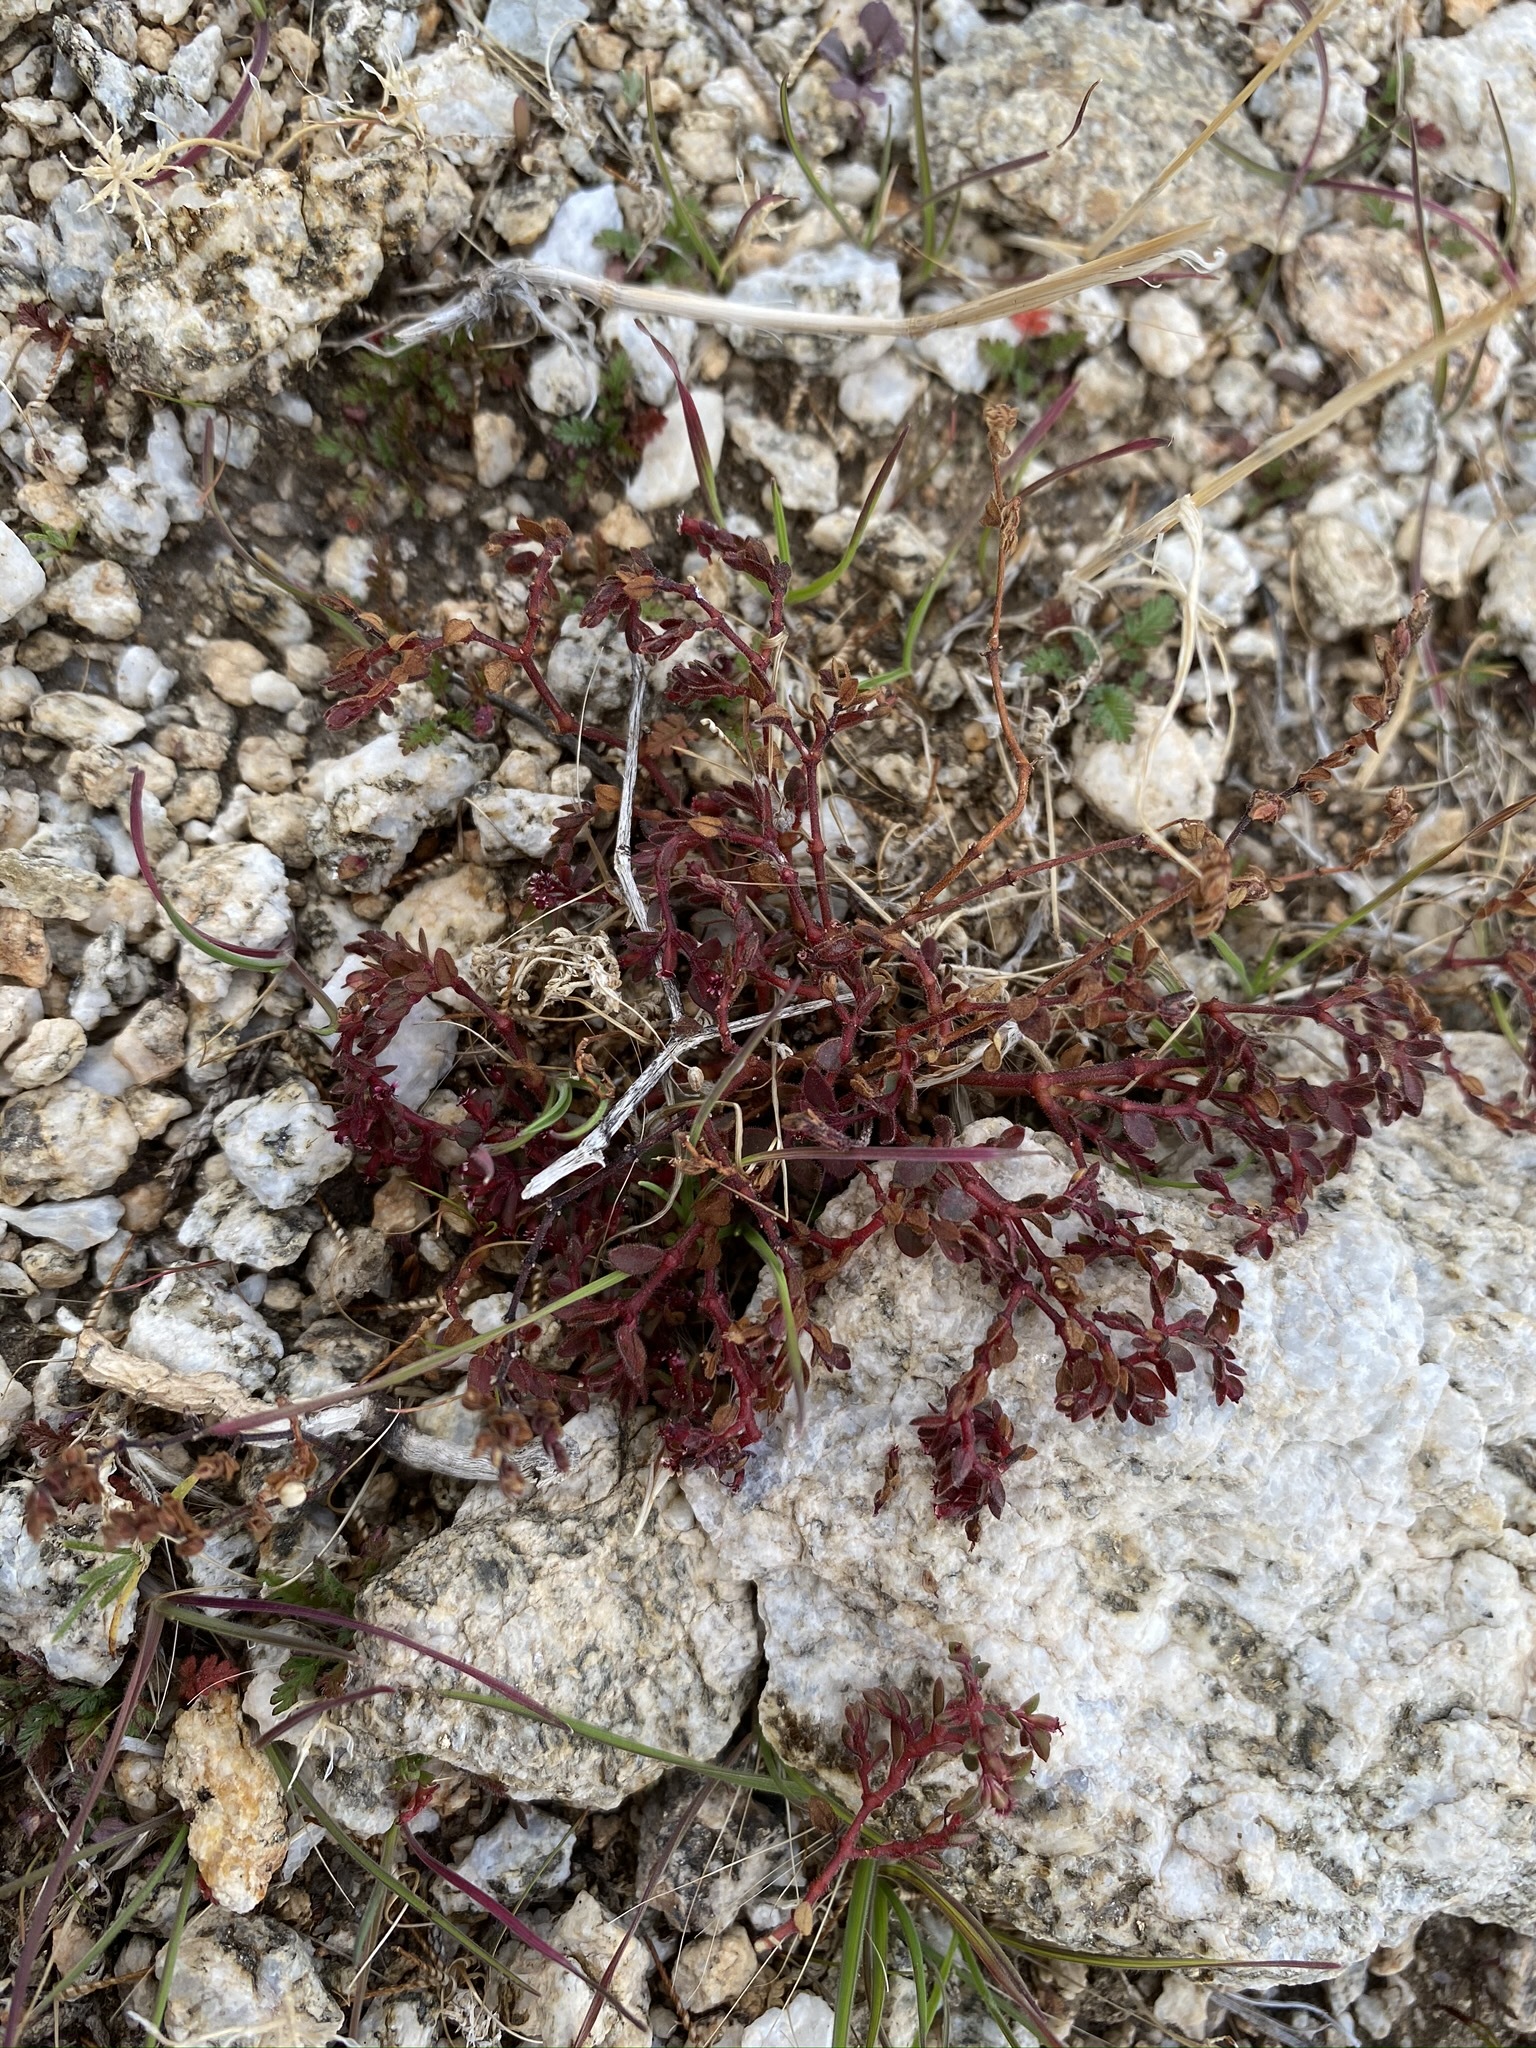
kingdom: Plantae
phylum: Tracheophyta
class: Magnoliopsida
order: Malpighiales
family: Euphorbiaceae
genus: Euphorbia
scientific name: Euphorbia arizonica
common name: Arizona spurge
